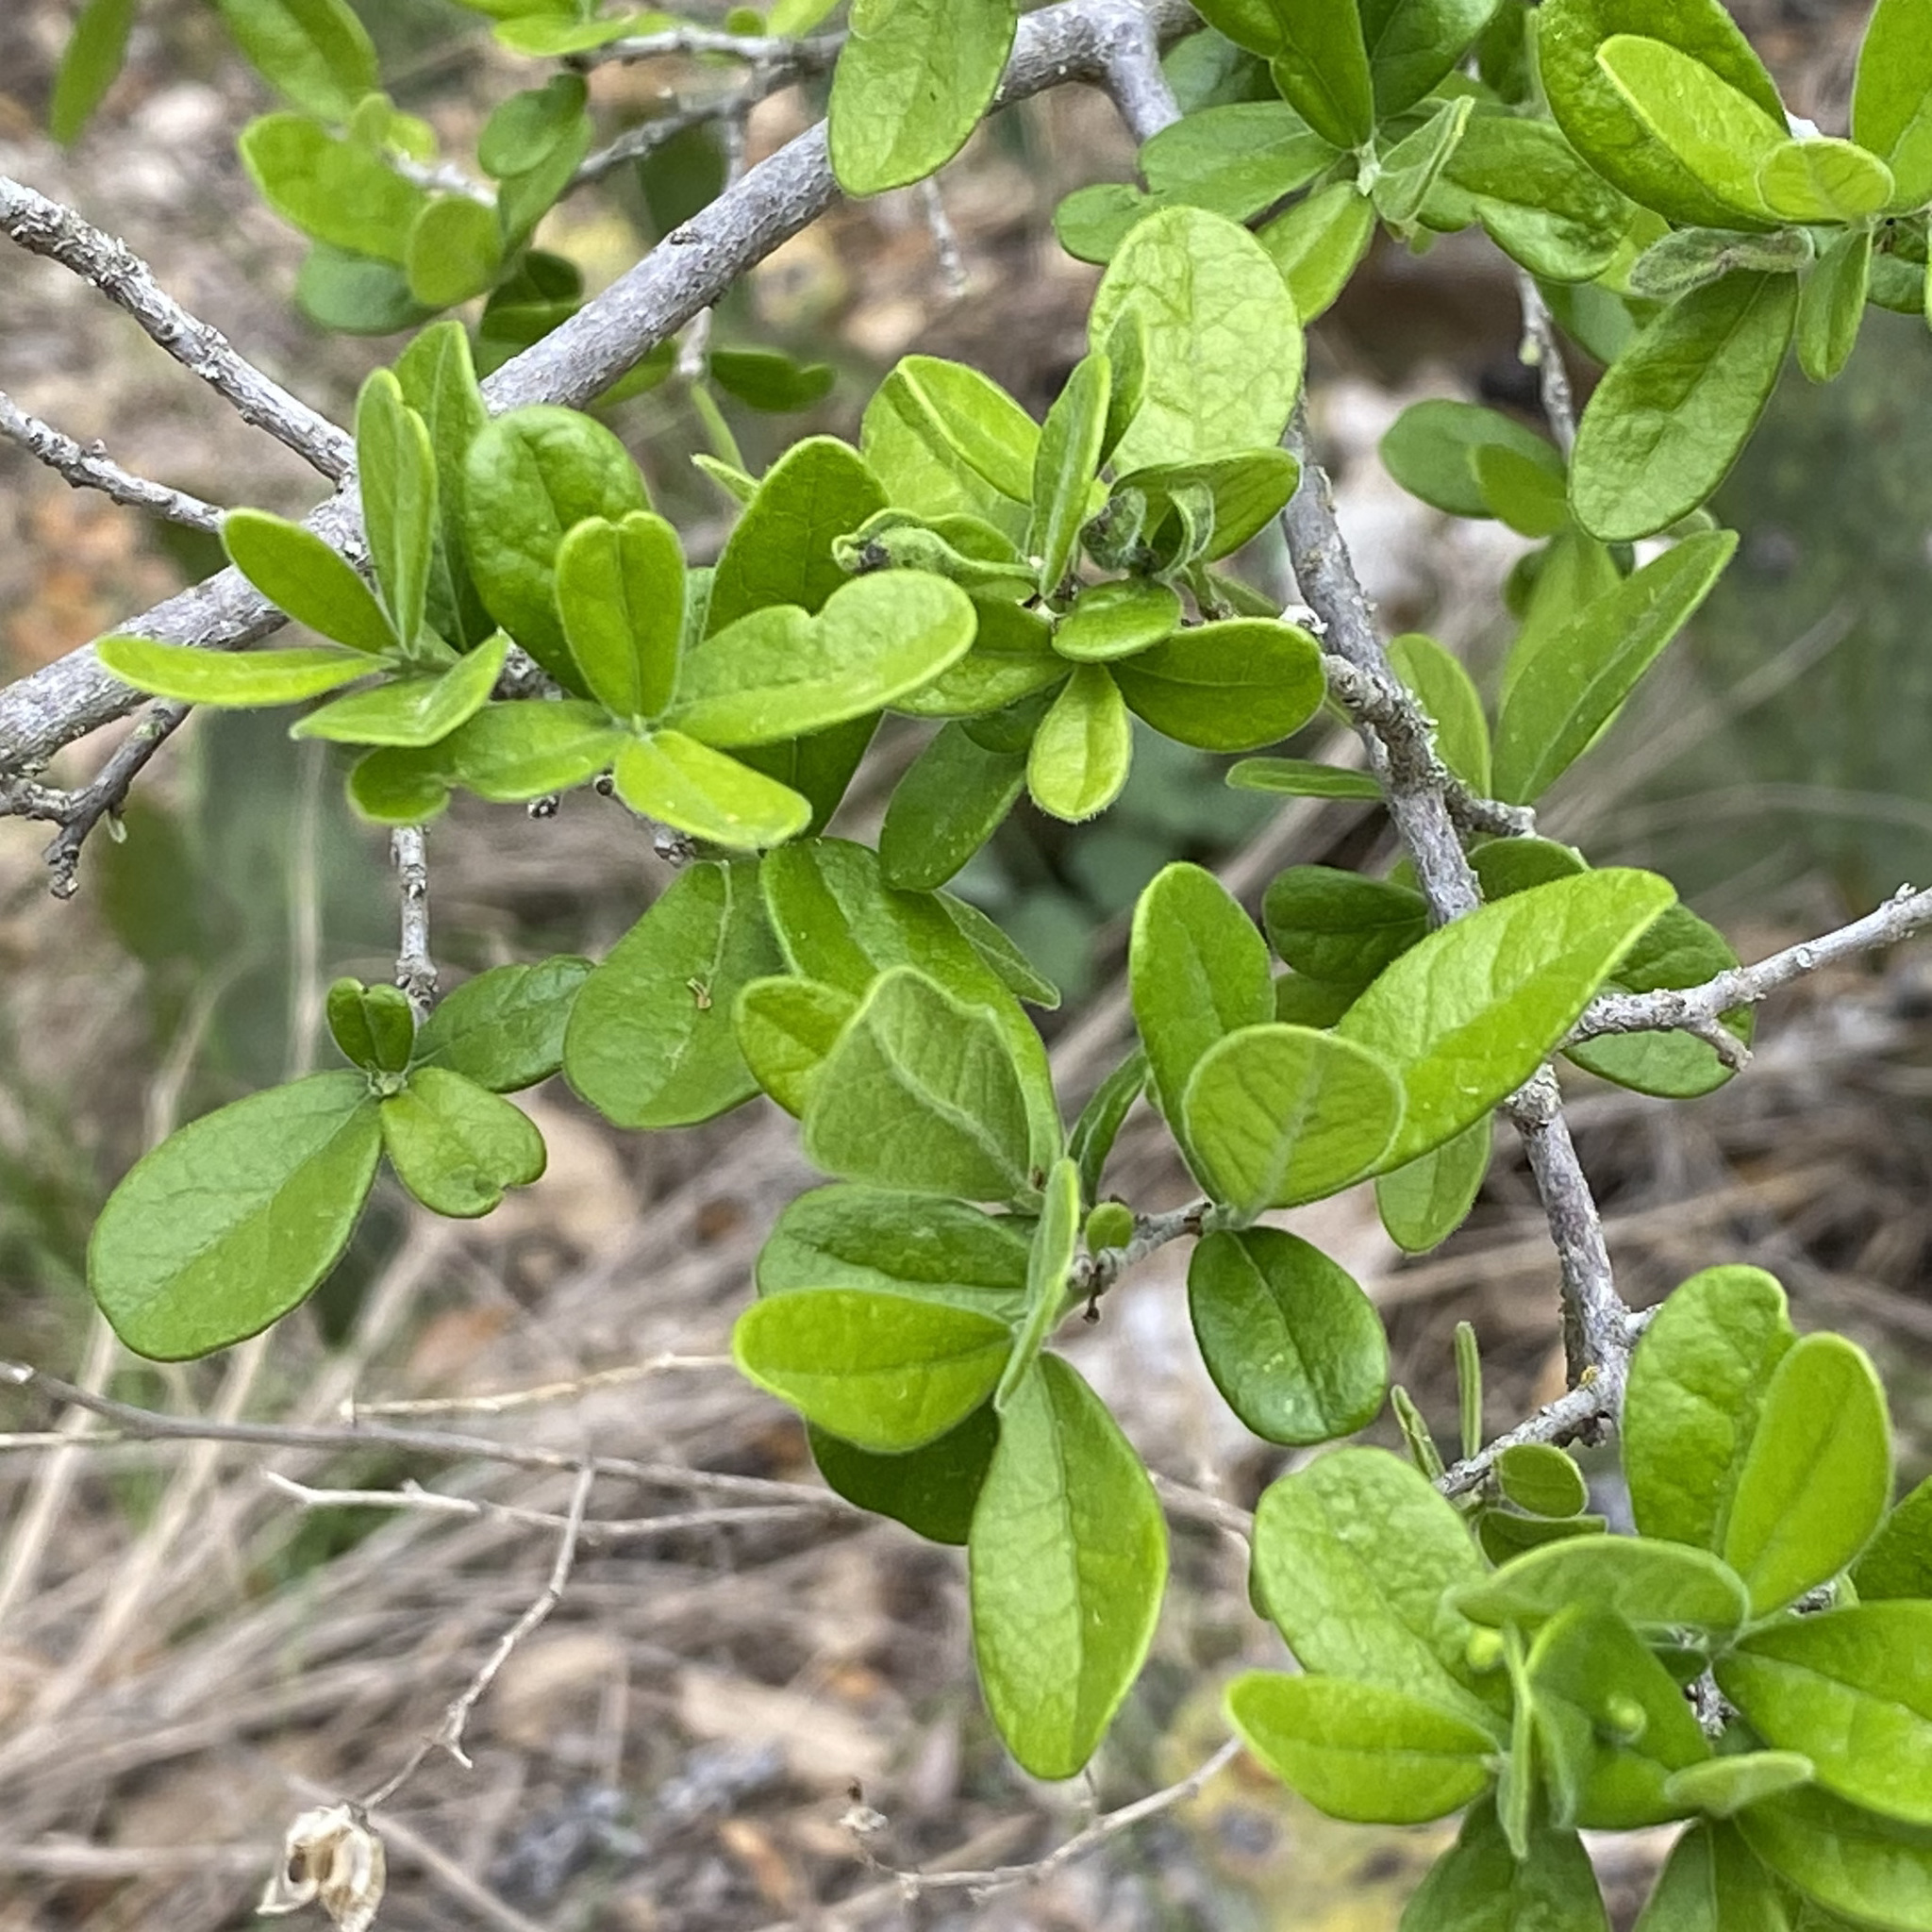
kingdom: Plantae
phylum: Tracheophyta
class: Magnoliopsida
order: Ericales
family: Ebenaceae
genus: Diospyros
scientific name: Diospyros texana
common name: Texas persimmon
